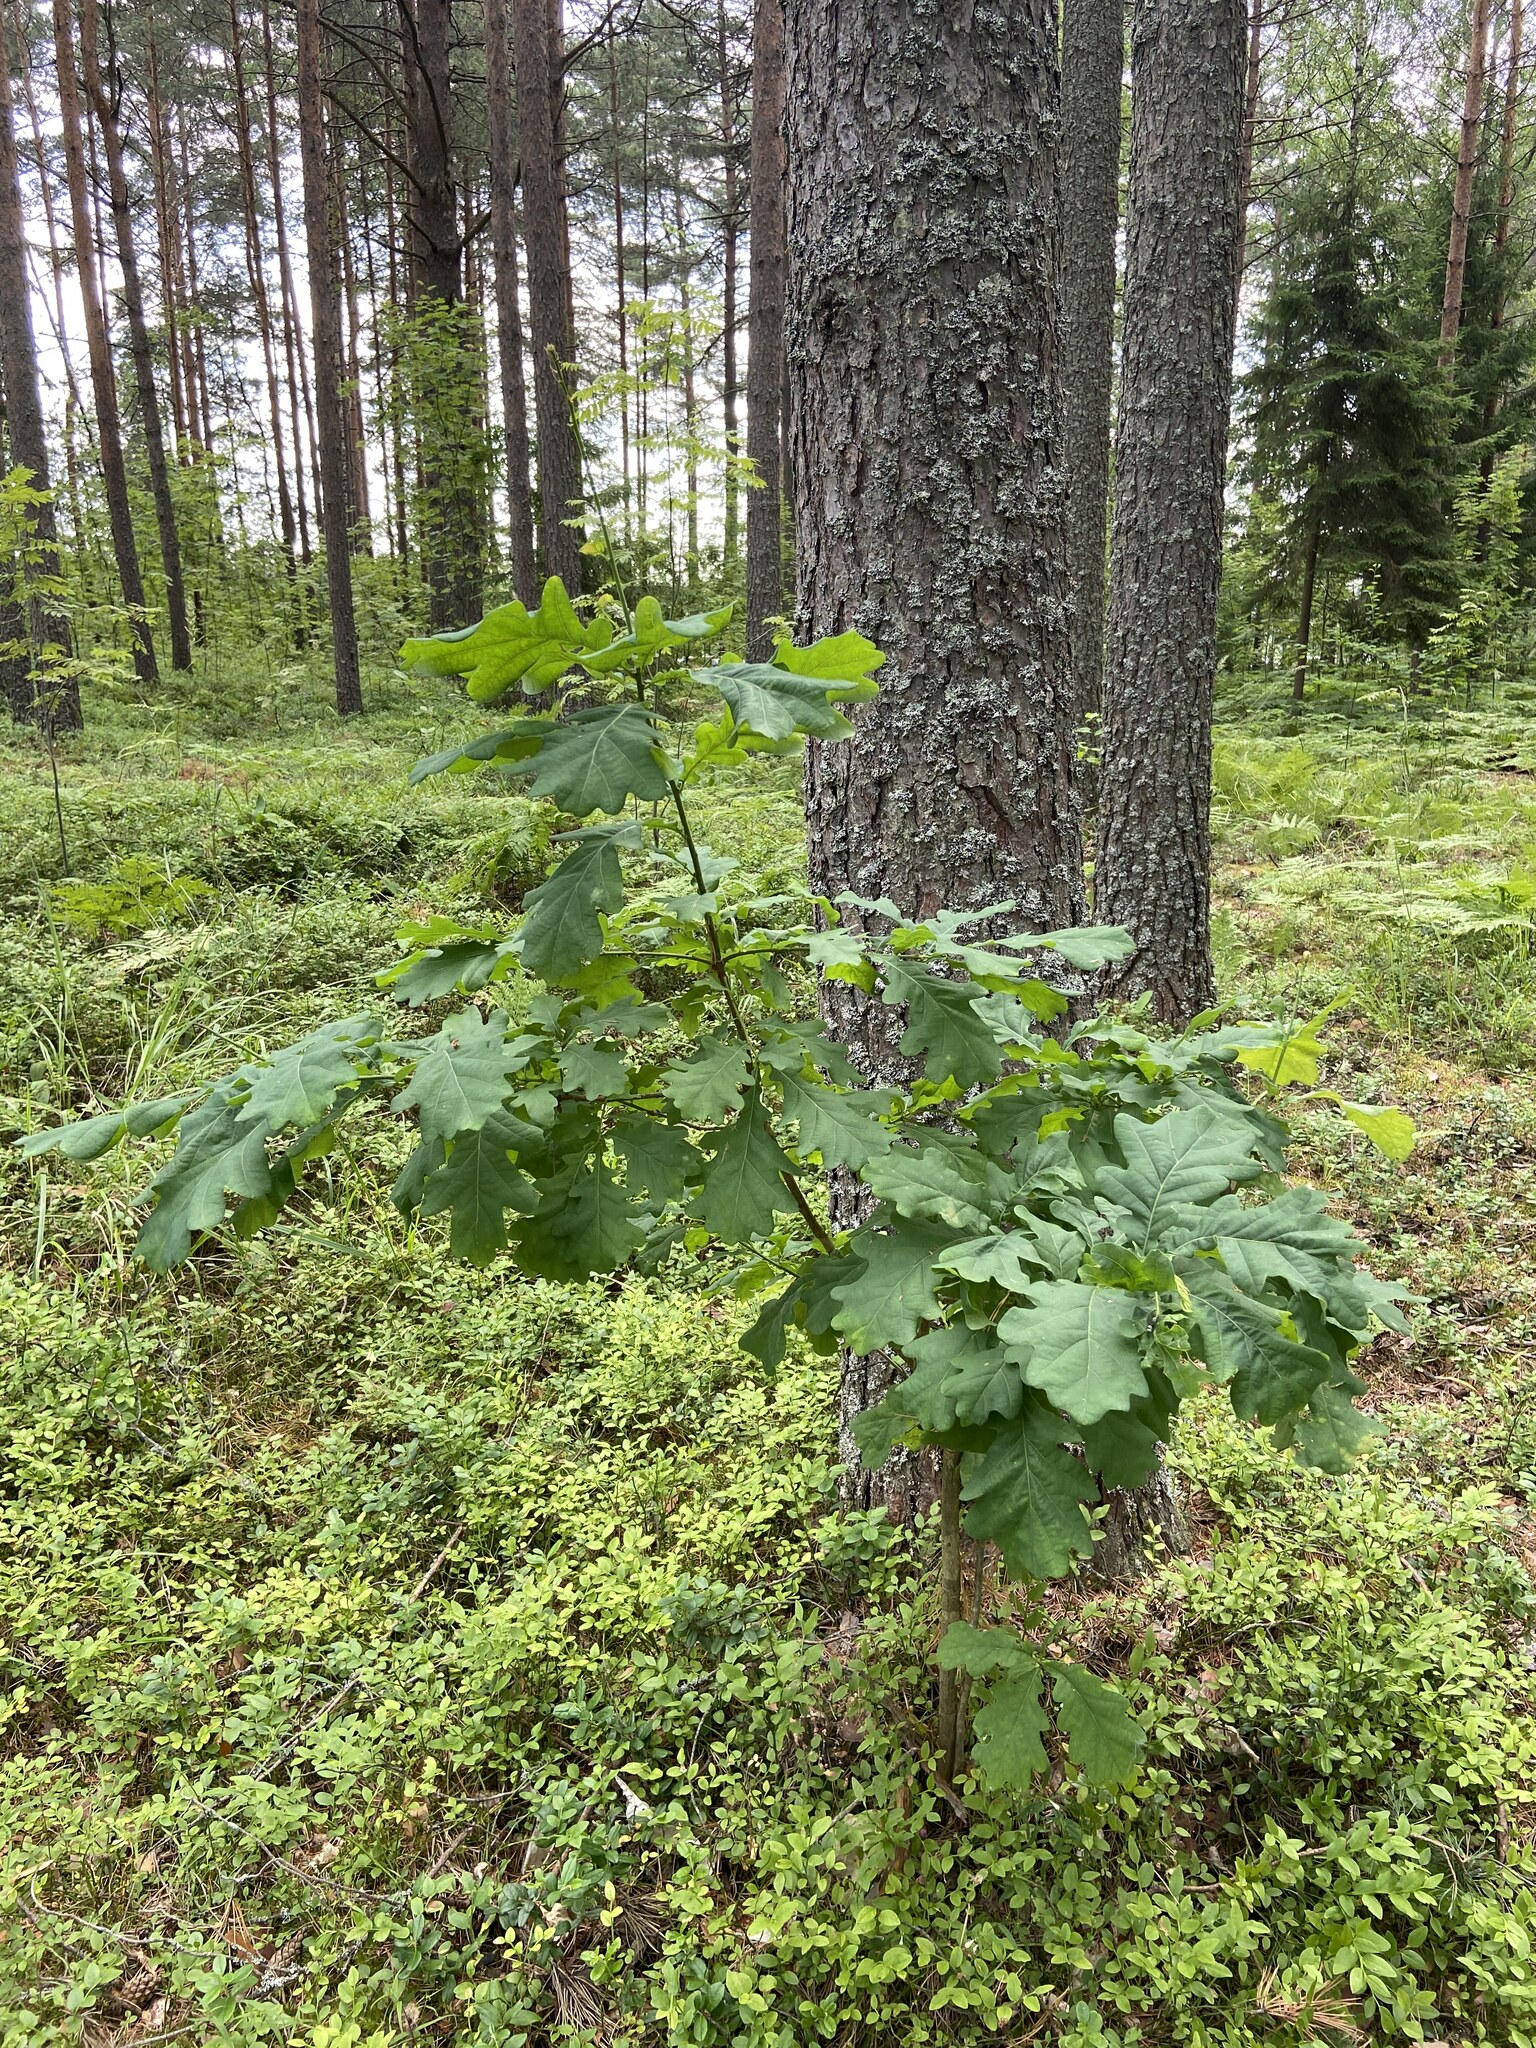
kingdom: Plantae
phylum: Tracheophyta
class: Magnoliopsida
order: Fagales
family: Fagaceae
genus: Quercus
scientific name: Quercus robur
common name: Pedunculate oak
